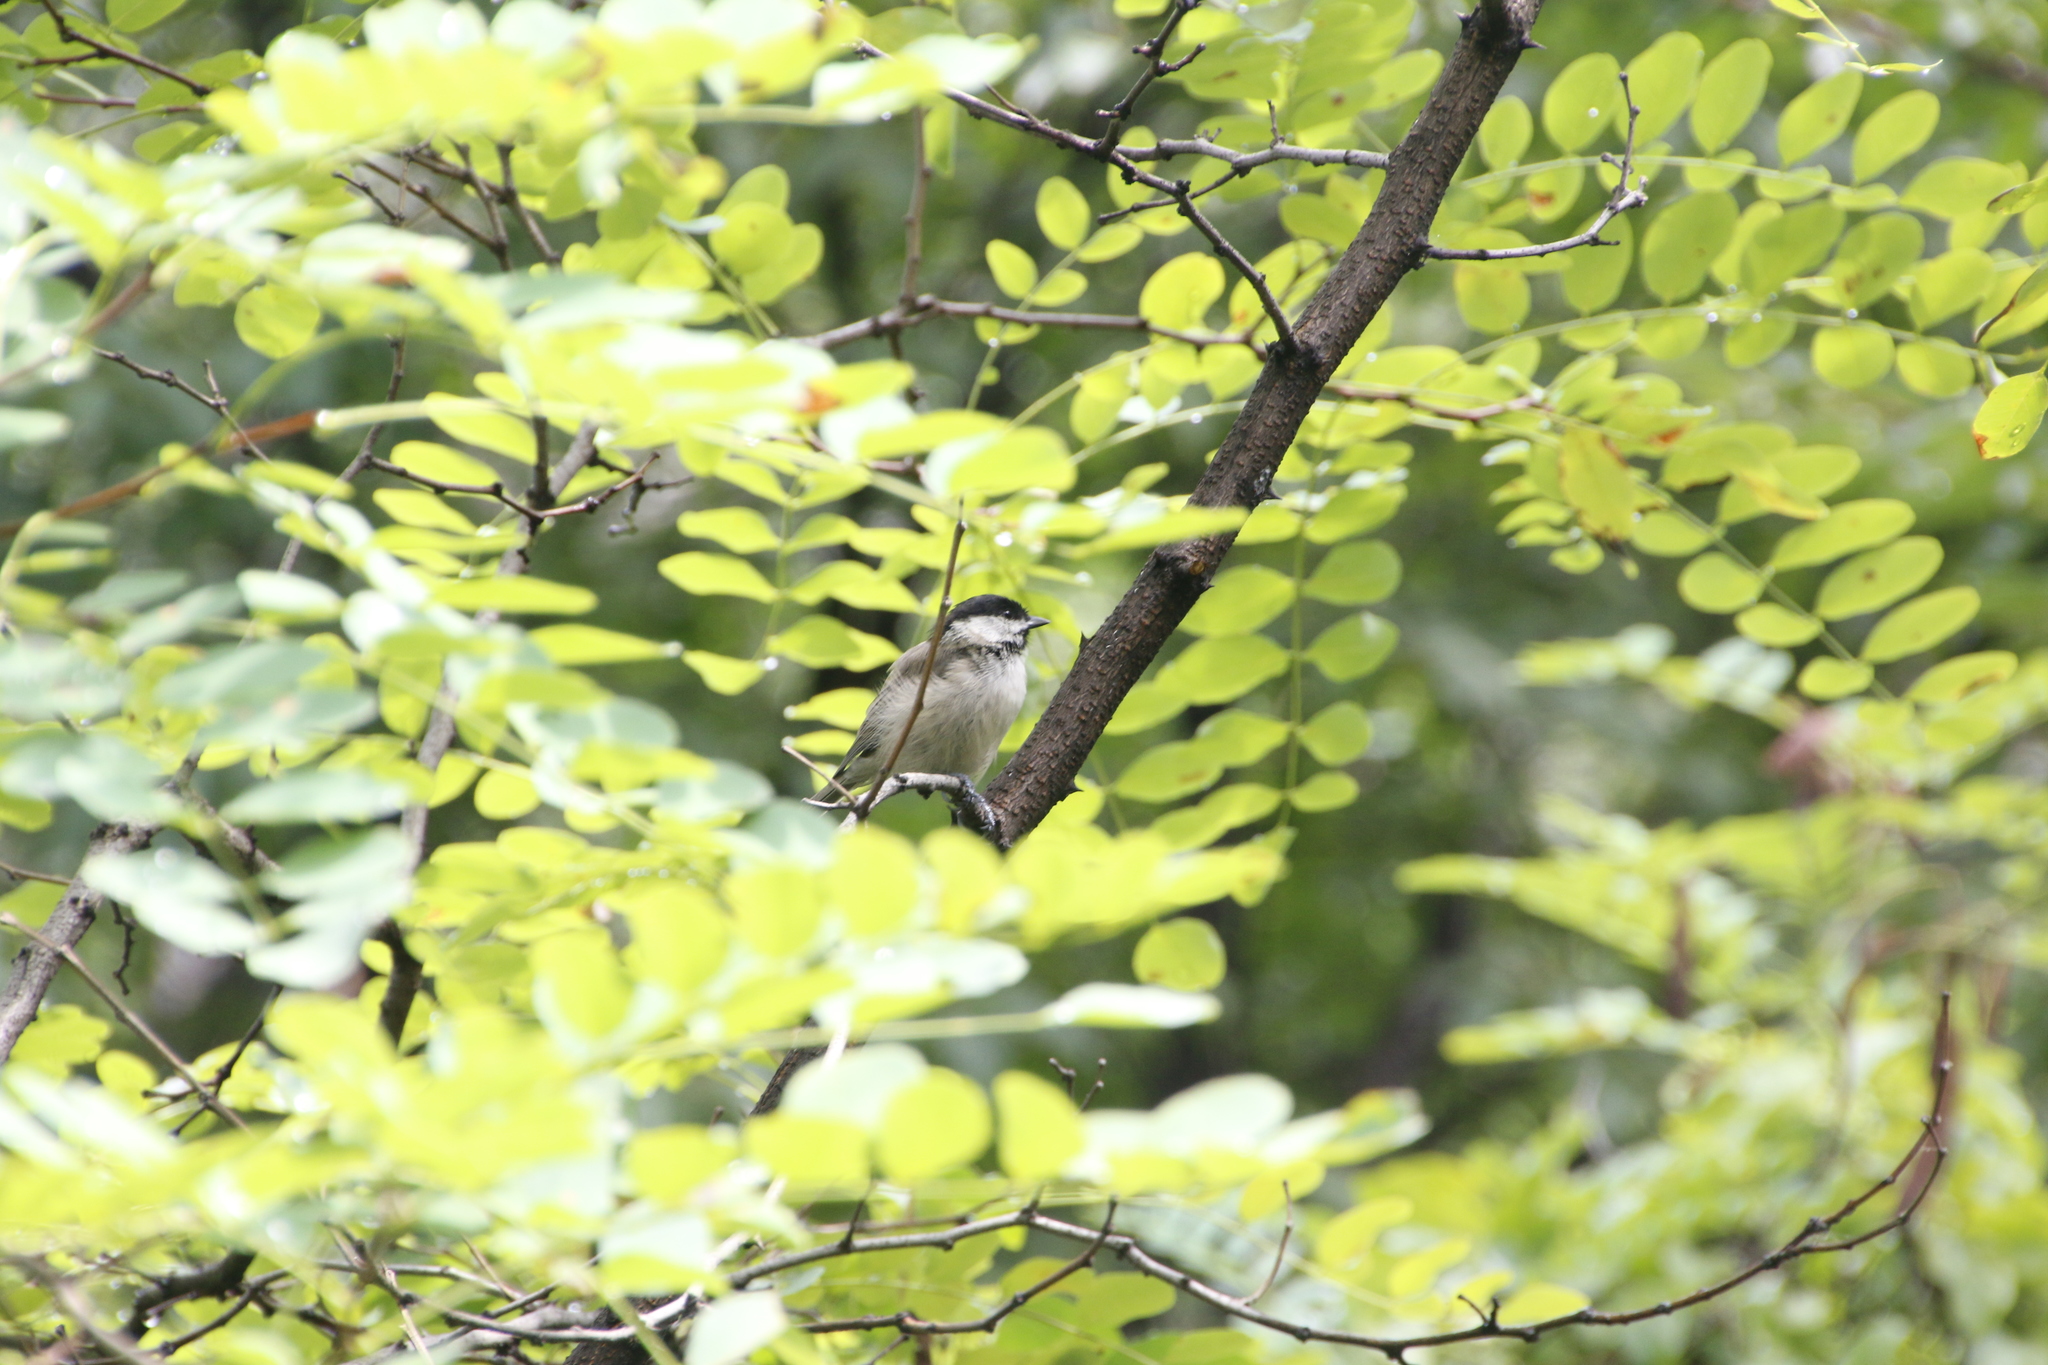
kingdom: Animalia
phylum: Chordata
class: Aves
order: Passeriformes
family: Paridae
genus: Poecile
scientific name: Poecile palustris
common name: Marsh tit
